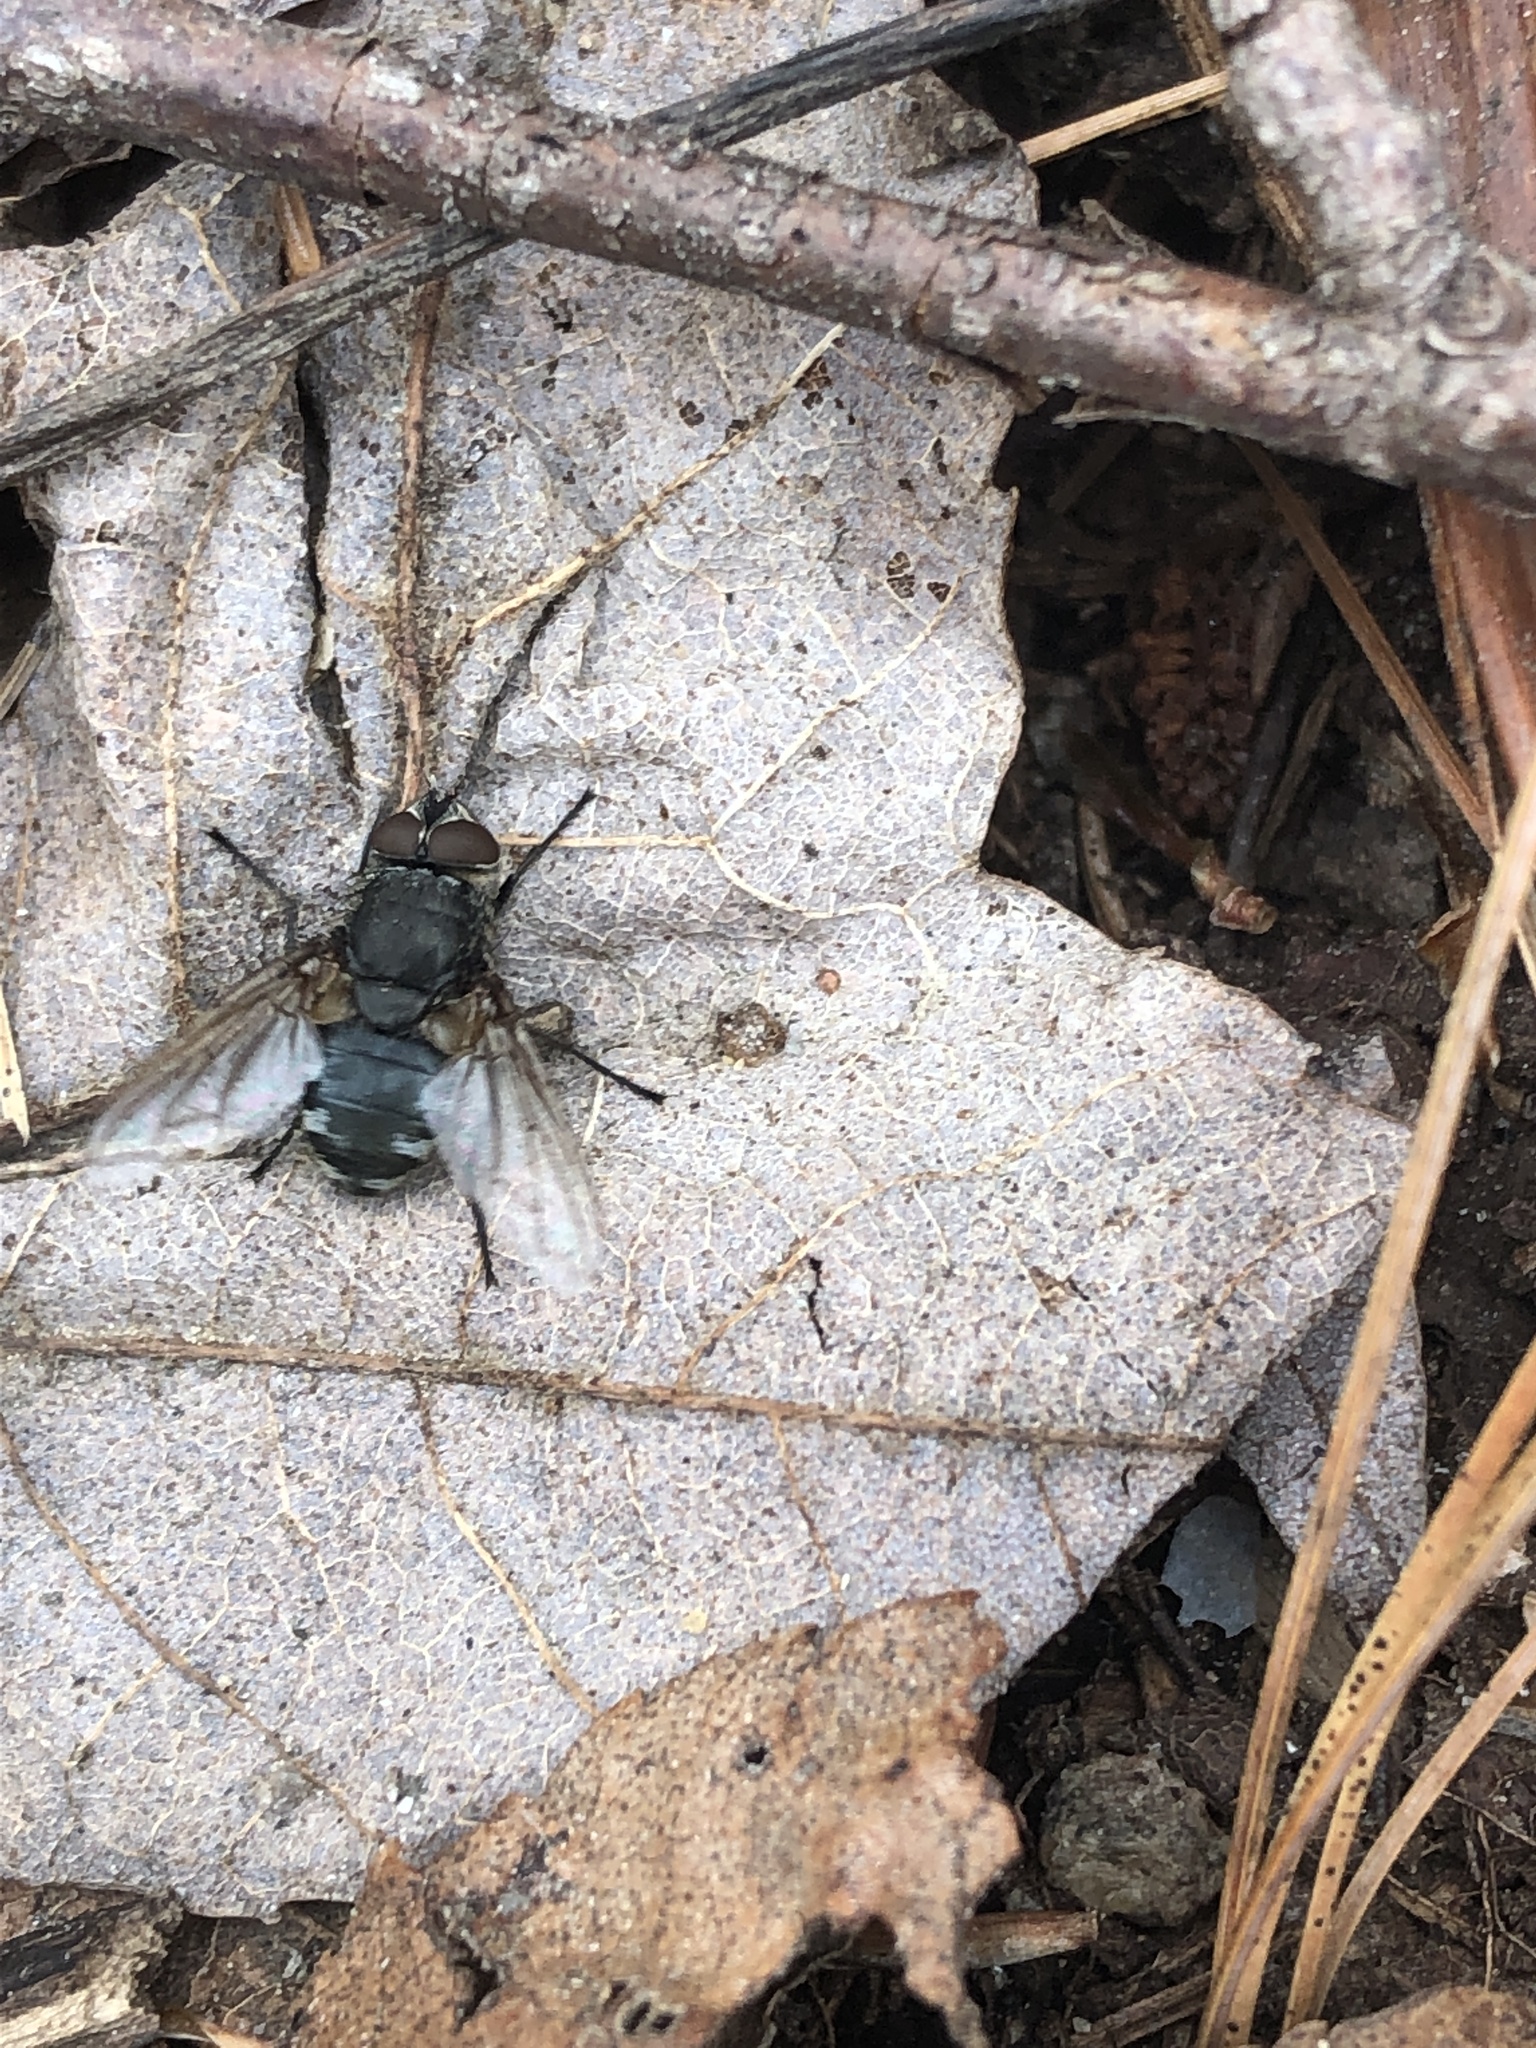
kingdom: Animalia
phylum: Arthropoda
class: Insecta
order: Diptera
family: Polleniidae
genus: Pollenia
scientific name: Pollenia
